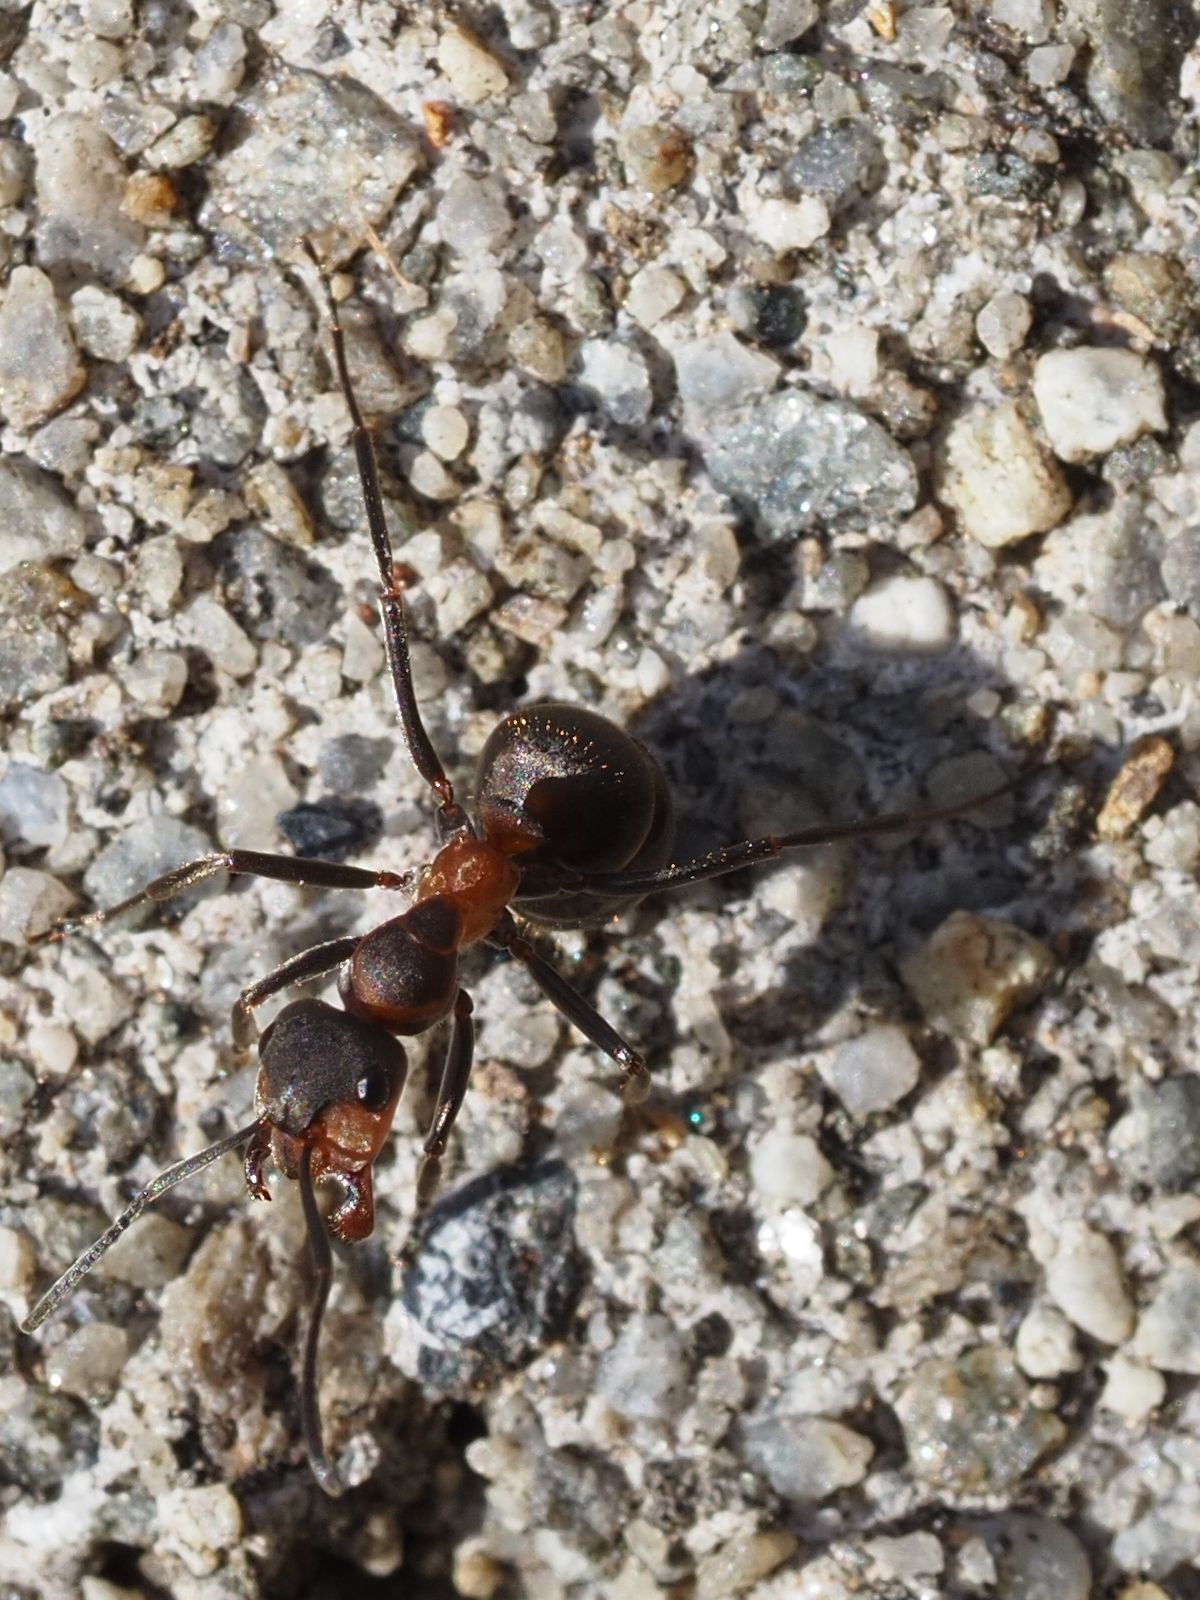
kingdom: Animalia
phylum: Arthropoda
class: Insecta
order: Hymenoptera
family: Formicidae
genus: Formica
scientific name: Formica rufa
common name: Red wood ant
